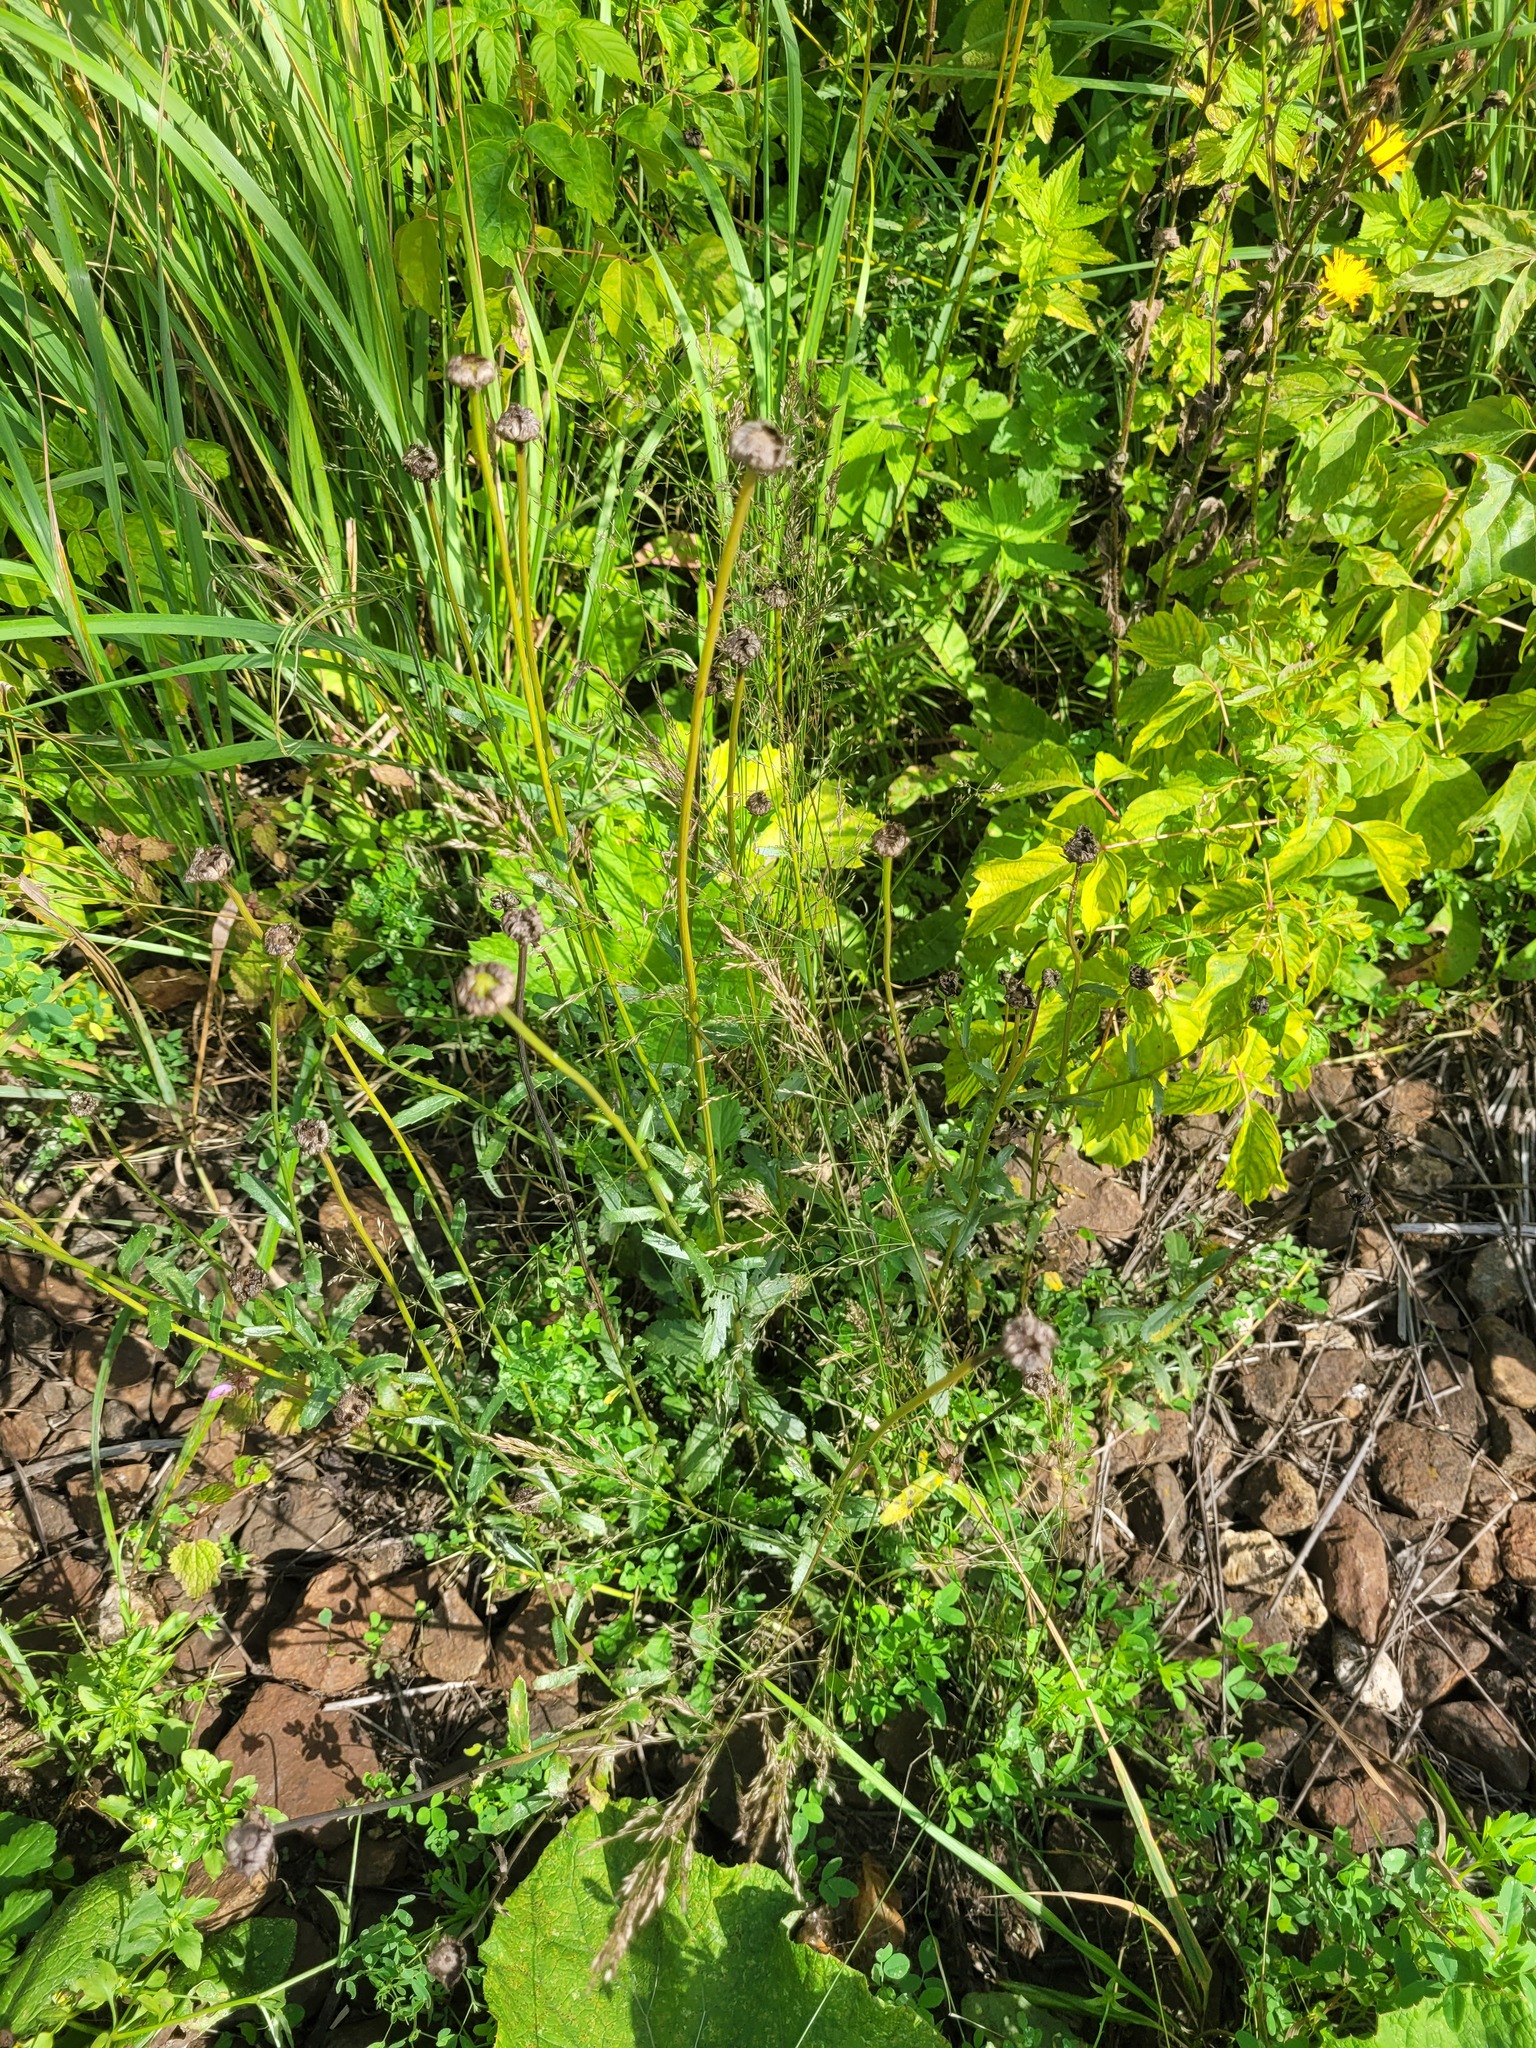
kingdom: Plantae
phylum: Tracheophyta
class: Magnoliopsida
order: Asterales
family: Asteraceae
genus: Leucanthemum
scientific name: Leucanthemum vulgare
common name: Oxeye daisy
